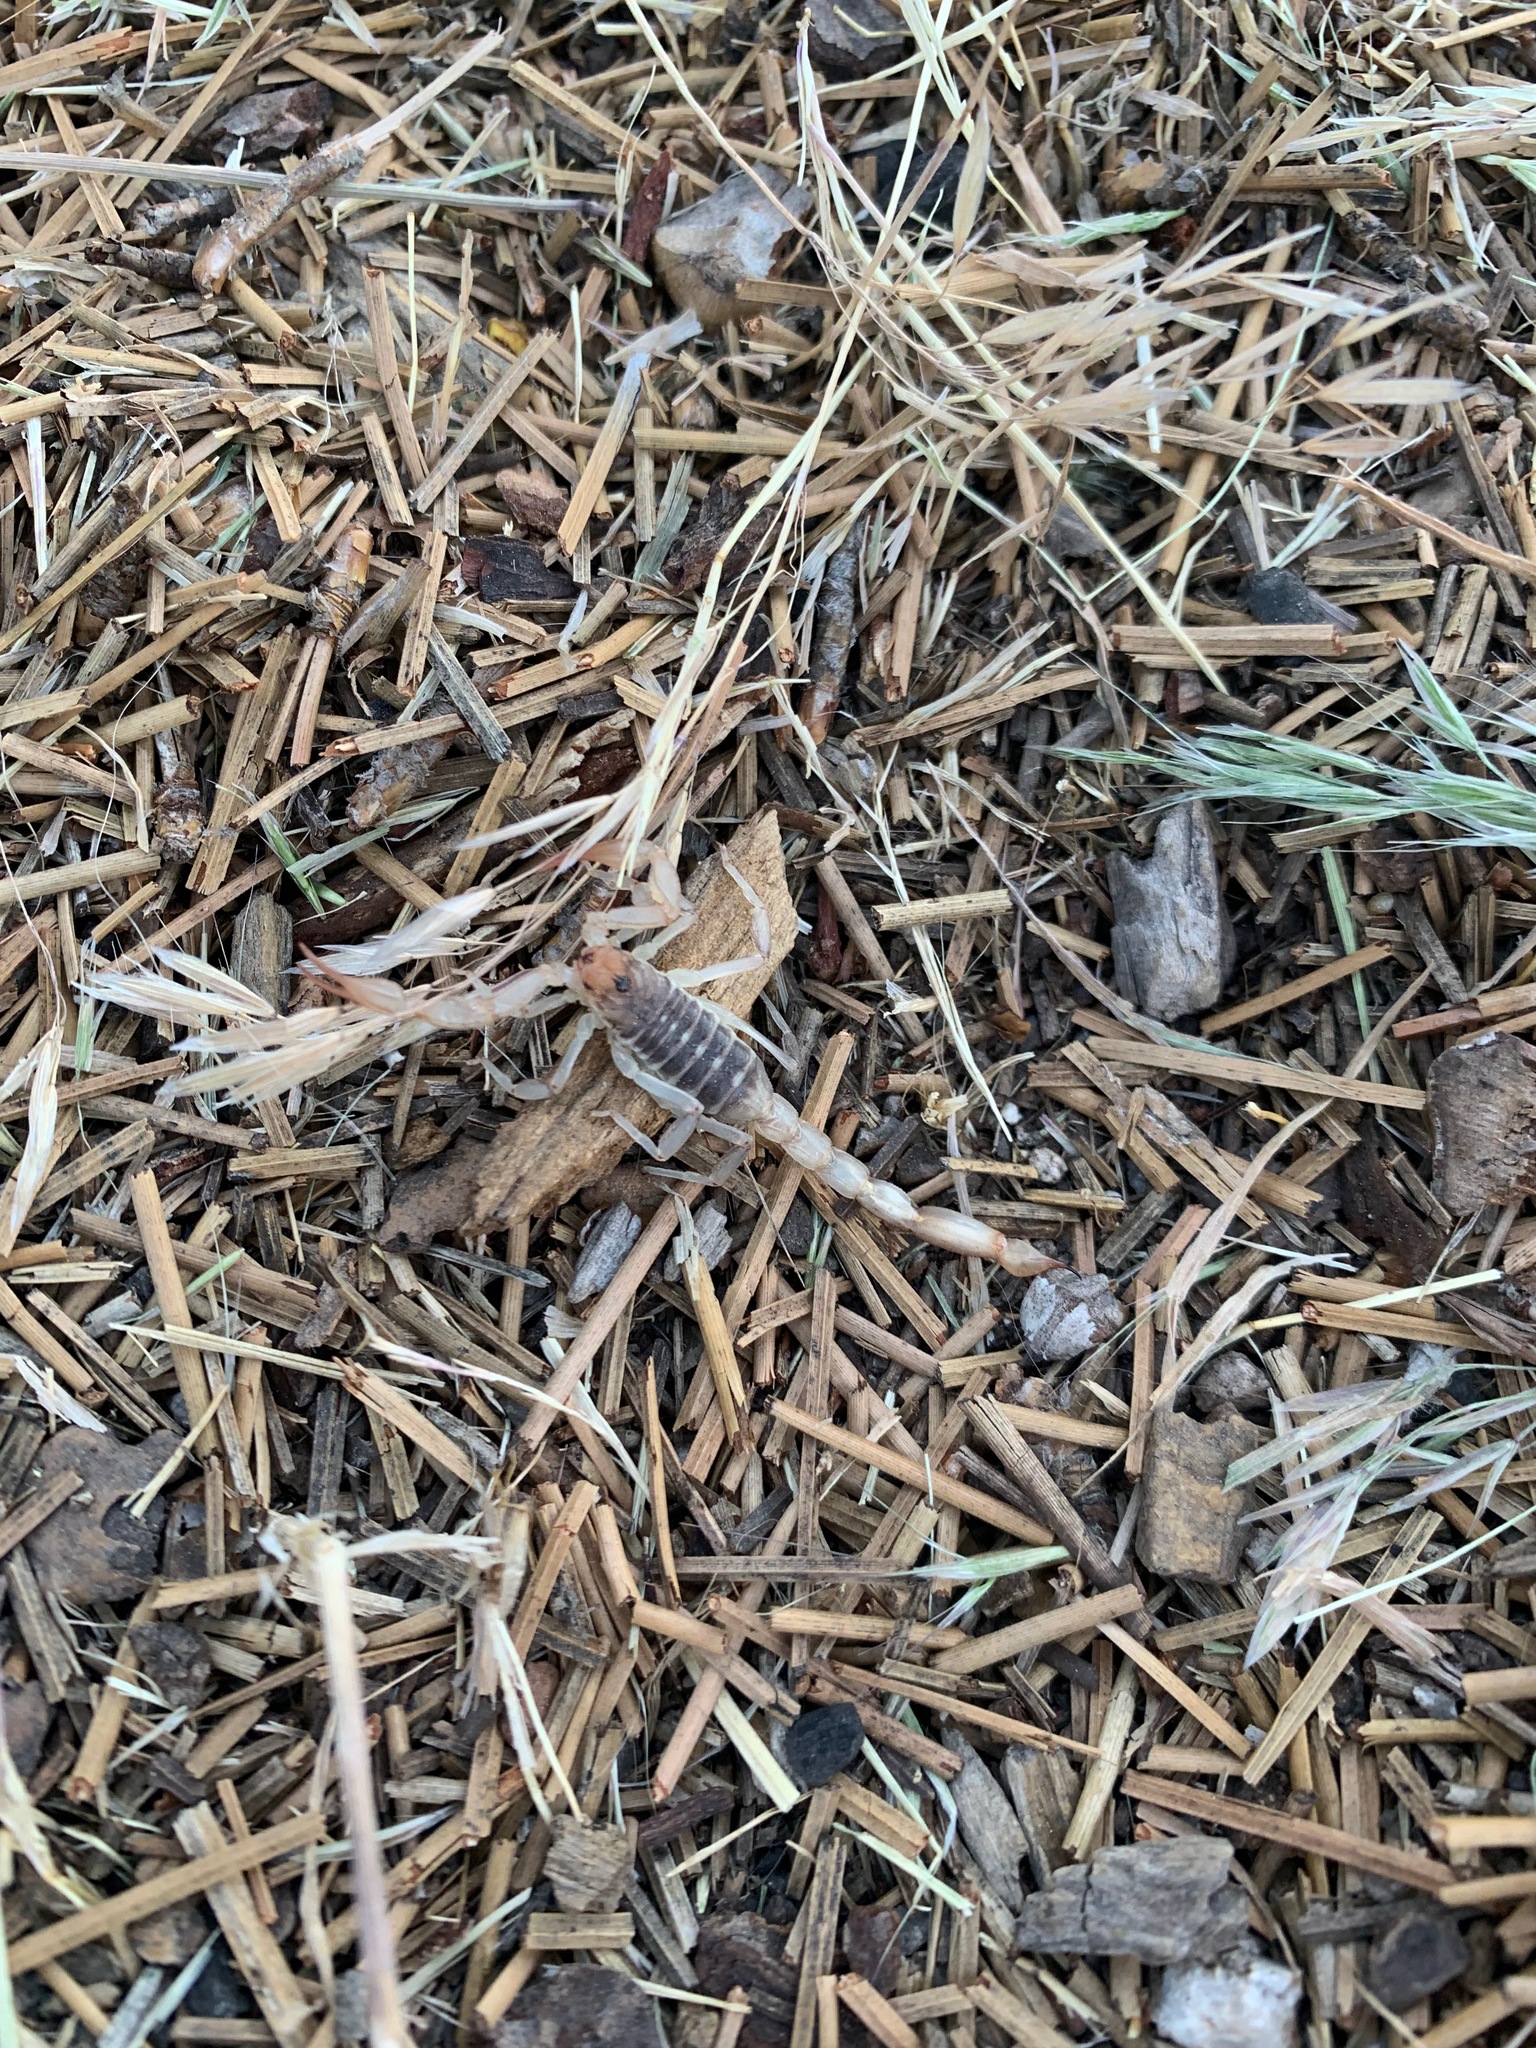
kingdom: Animalia
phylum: Arthropoda
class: Arachnida
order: Scorpiones
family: Vaejovidae
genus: Paruroctonus
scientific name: Paruroctonus silvestrii
